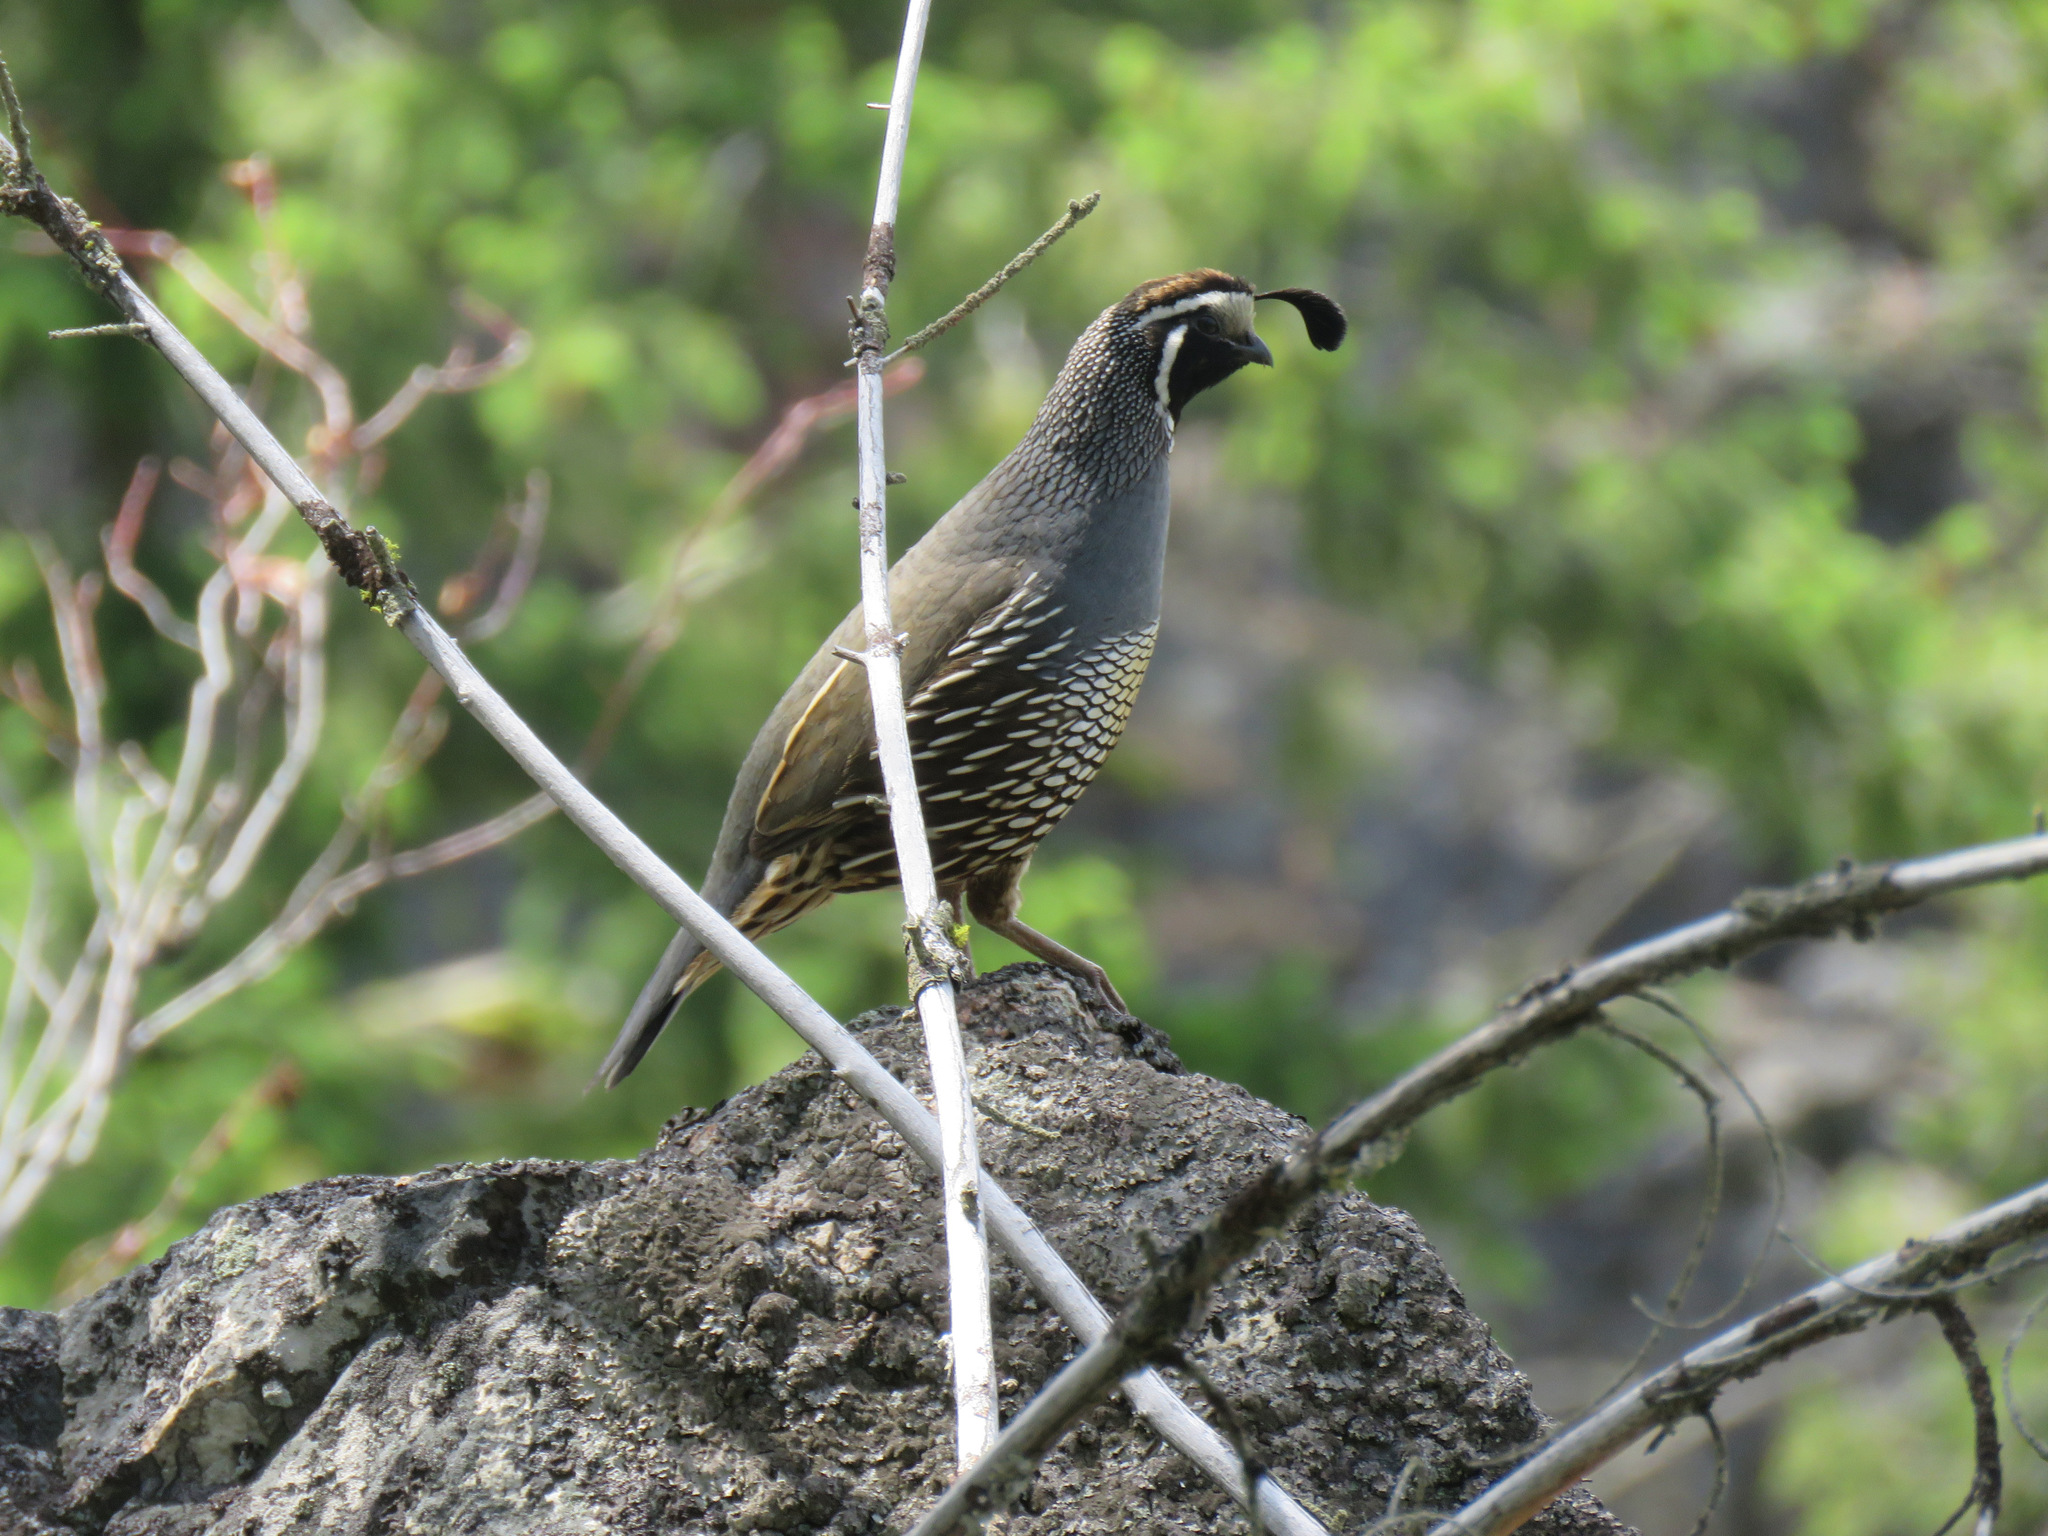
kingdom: Animalia
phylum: Chordata
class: Aves
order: Galliformes
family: Odontophoridae
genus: Callipepla
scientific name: Callipepla californica
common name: California quail
